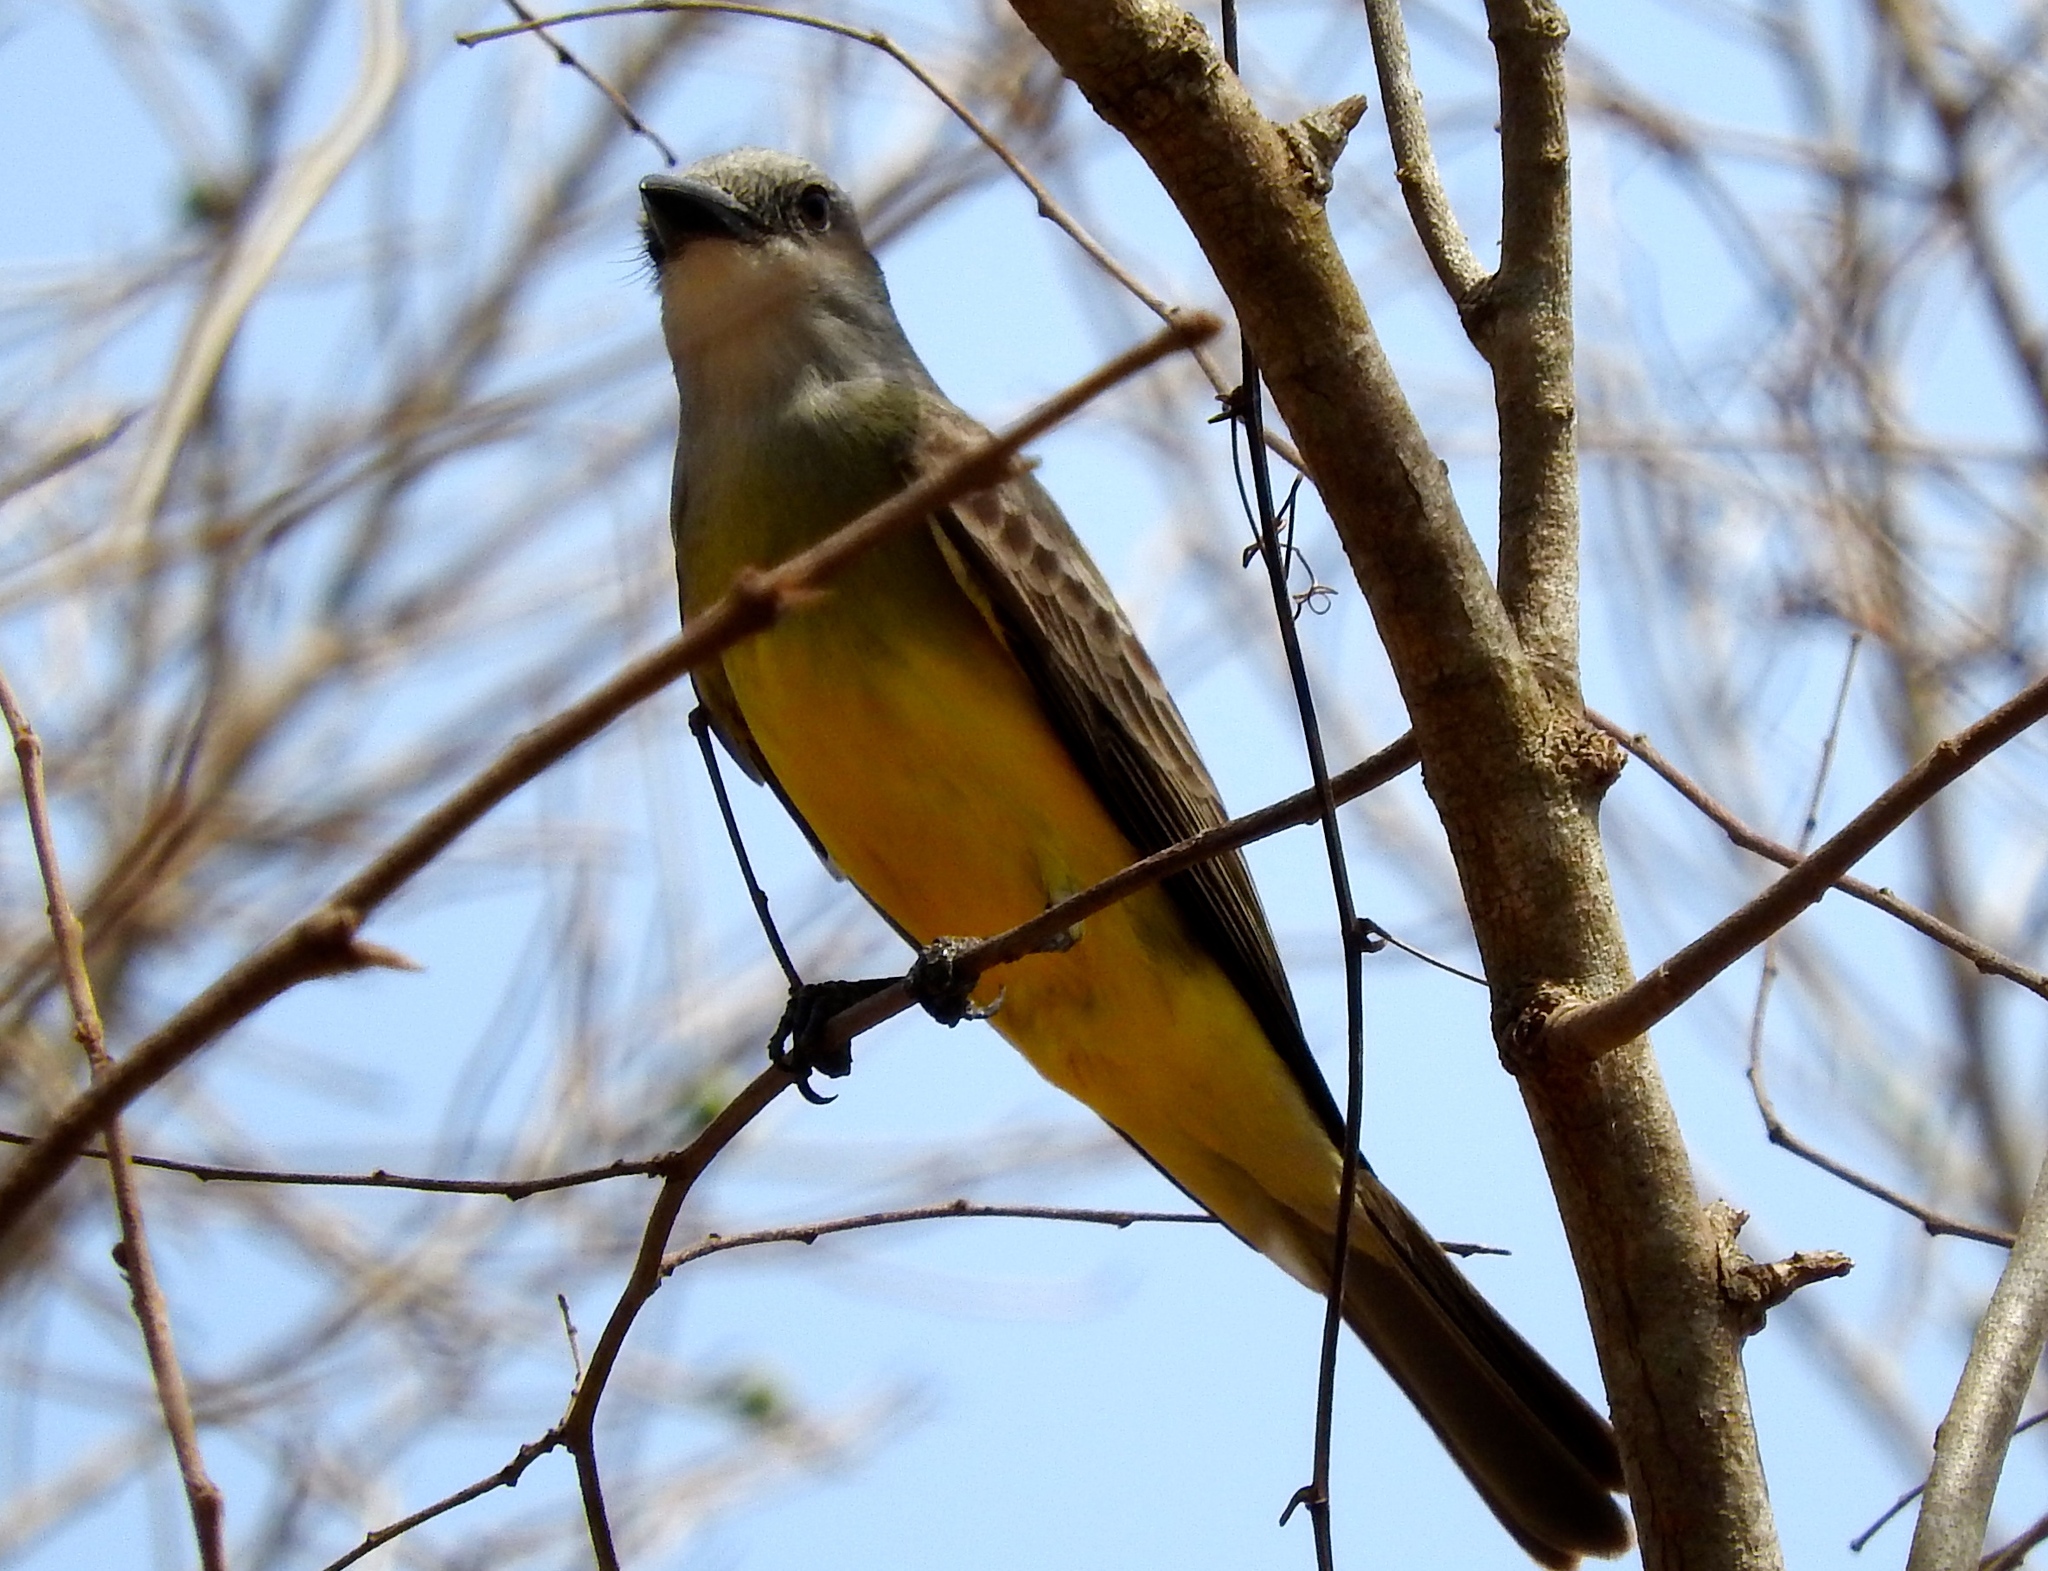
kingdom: Animalia
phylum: Chordata
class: Aves
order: Passeriformes
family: Tyrannidae
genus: Tyrannus
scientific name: Tyrannus melancholicus
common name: Tropical kingbird
